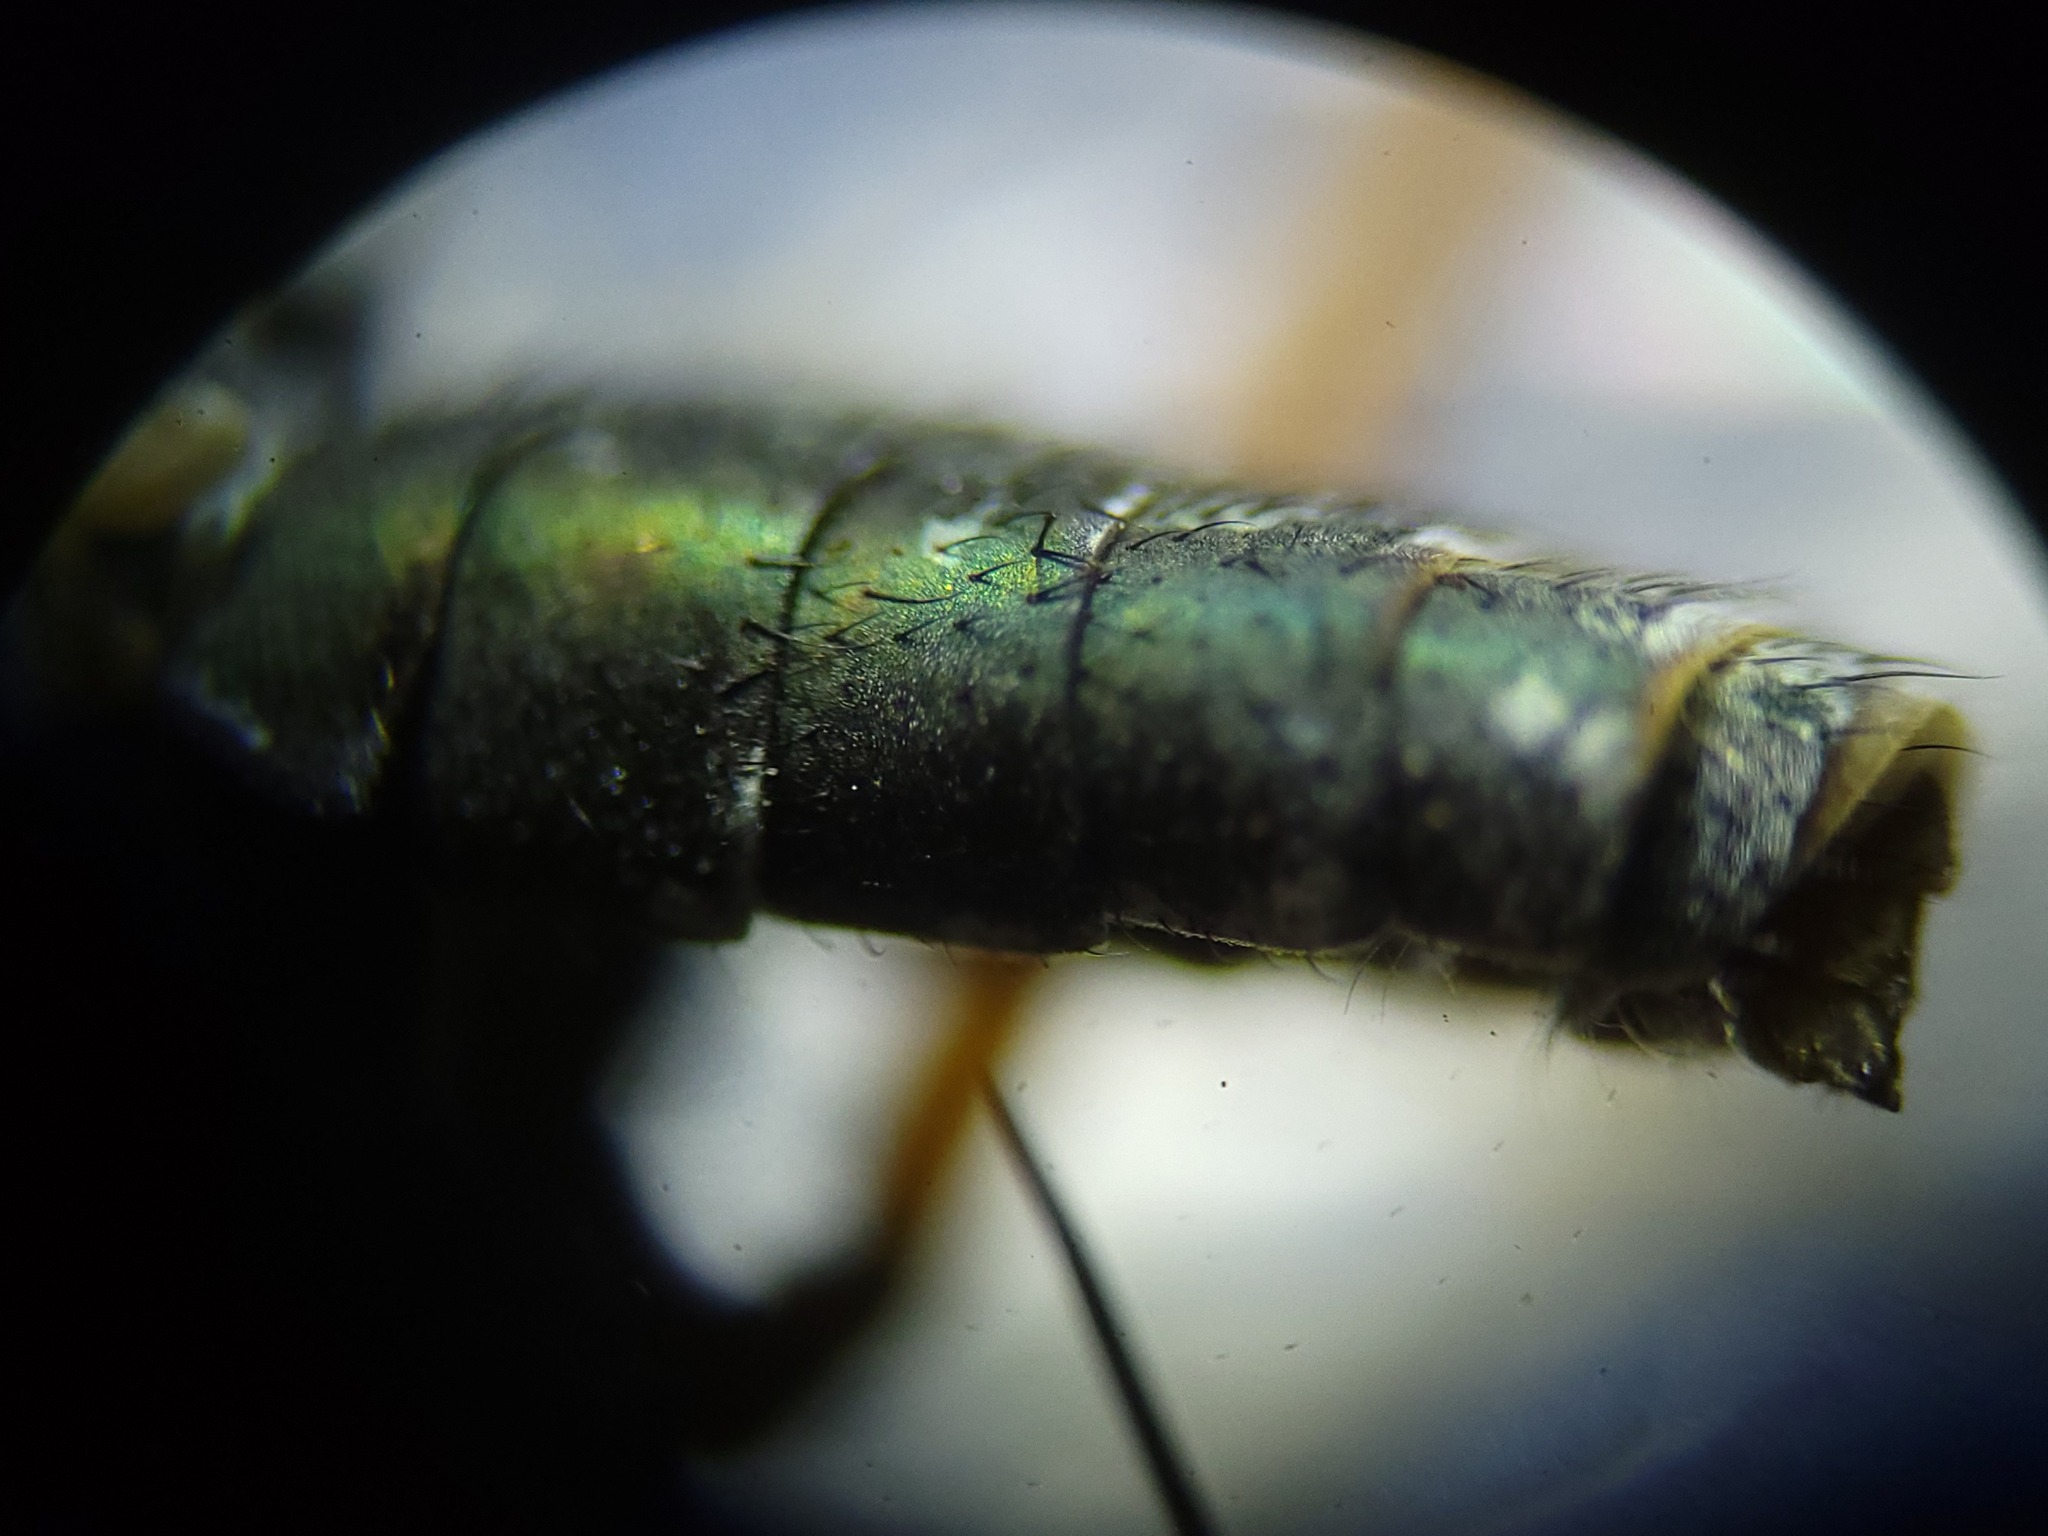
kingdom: Animalia
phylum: Arthropoda
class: Insecta
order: Diptera
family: Dolichopodidae
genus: Hypocharassus
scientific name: Hypocharassus pruinosus
